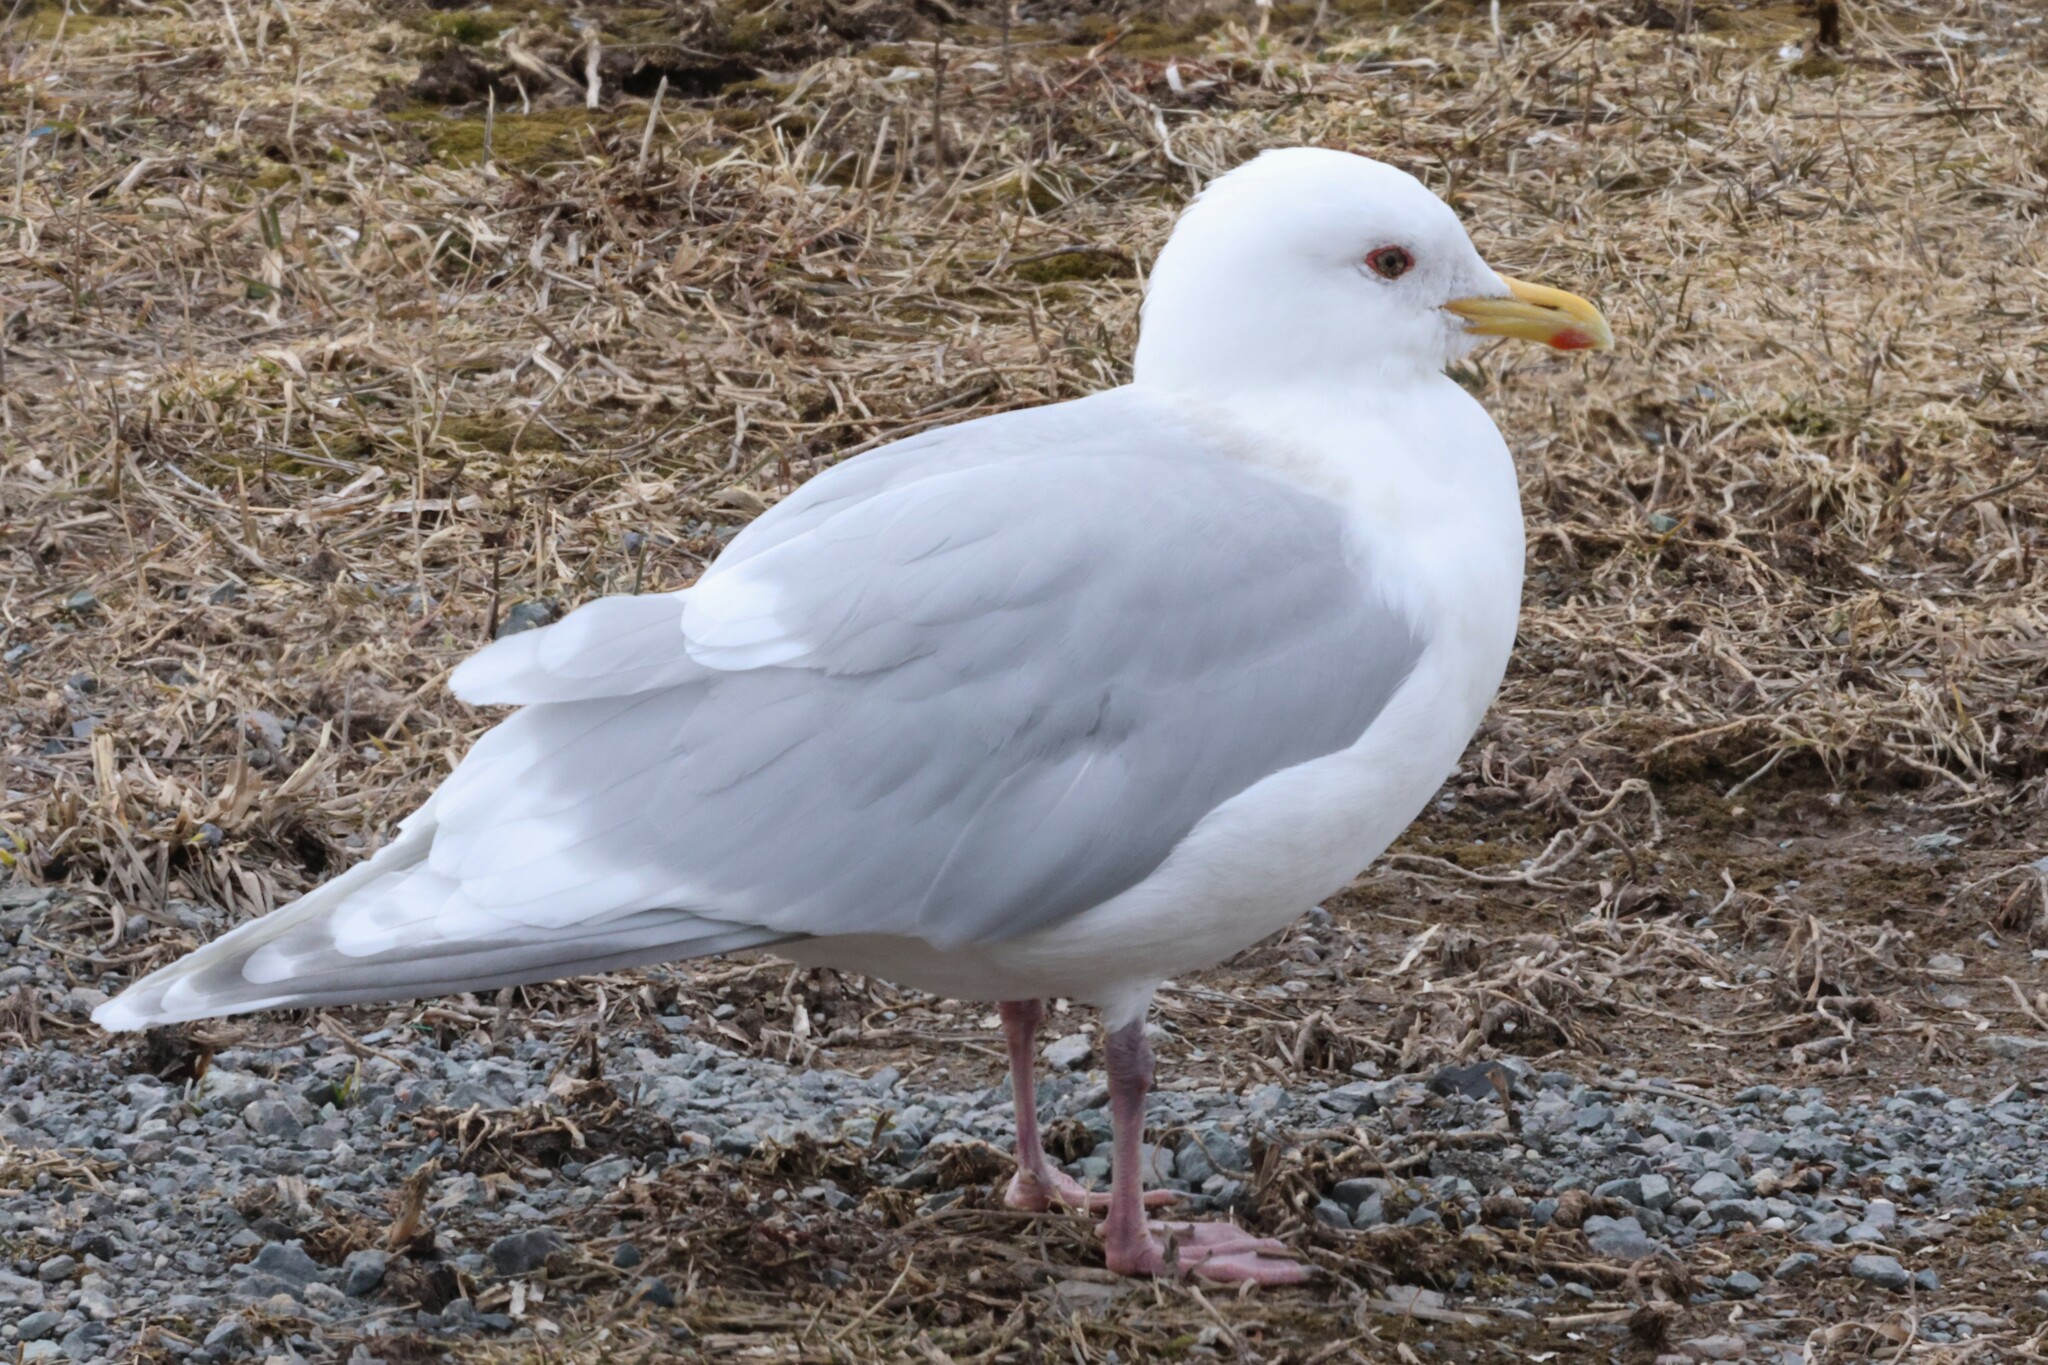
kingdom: Animalia
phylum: Chordata
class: Aves
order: Charadriiformes
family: Laridae
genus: Larus
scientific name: Larus glaucoides
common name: Iceland gull
